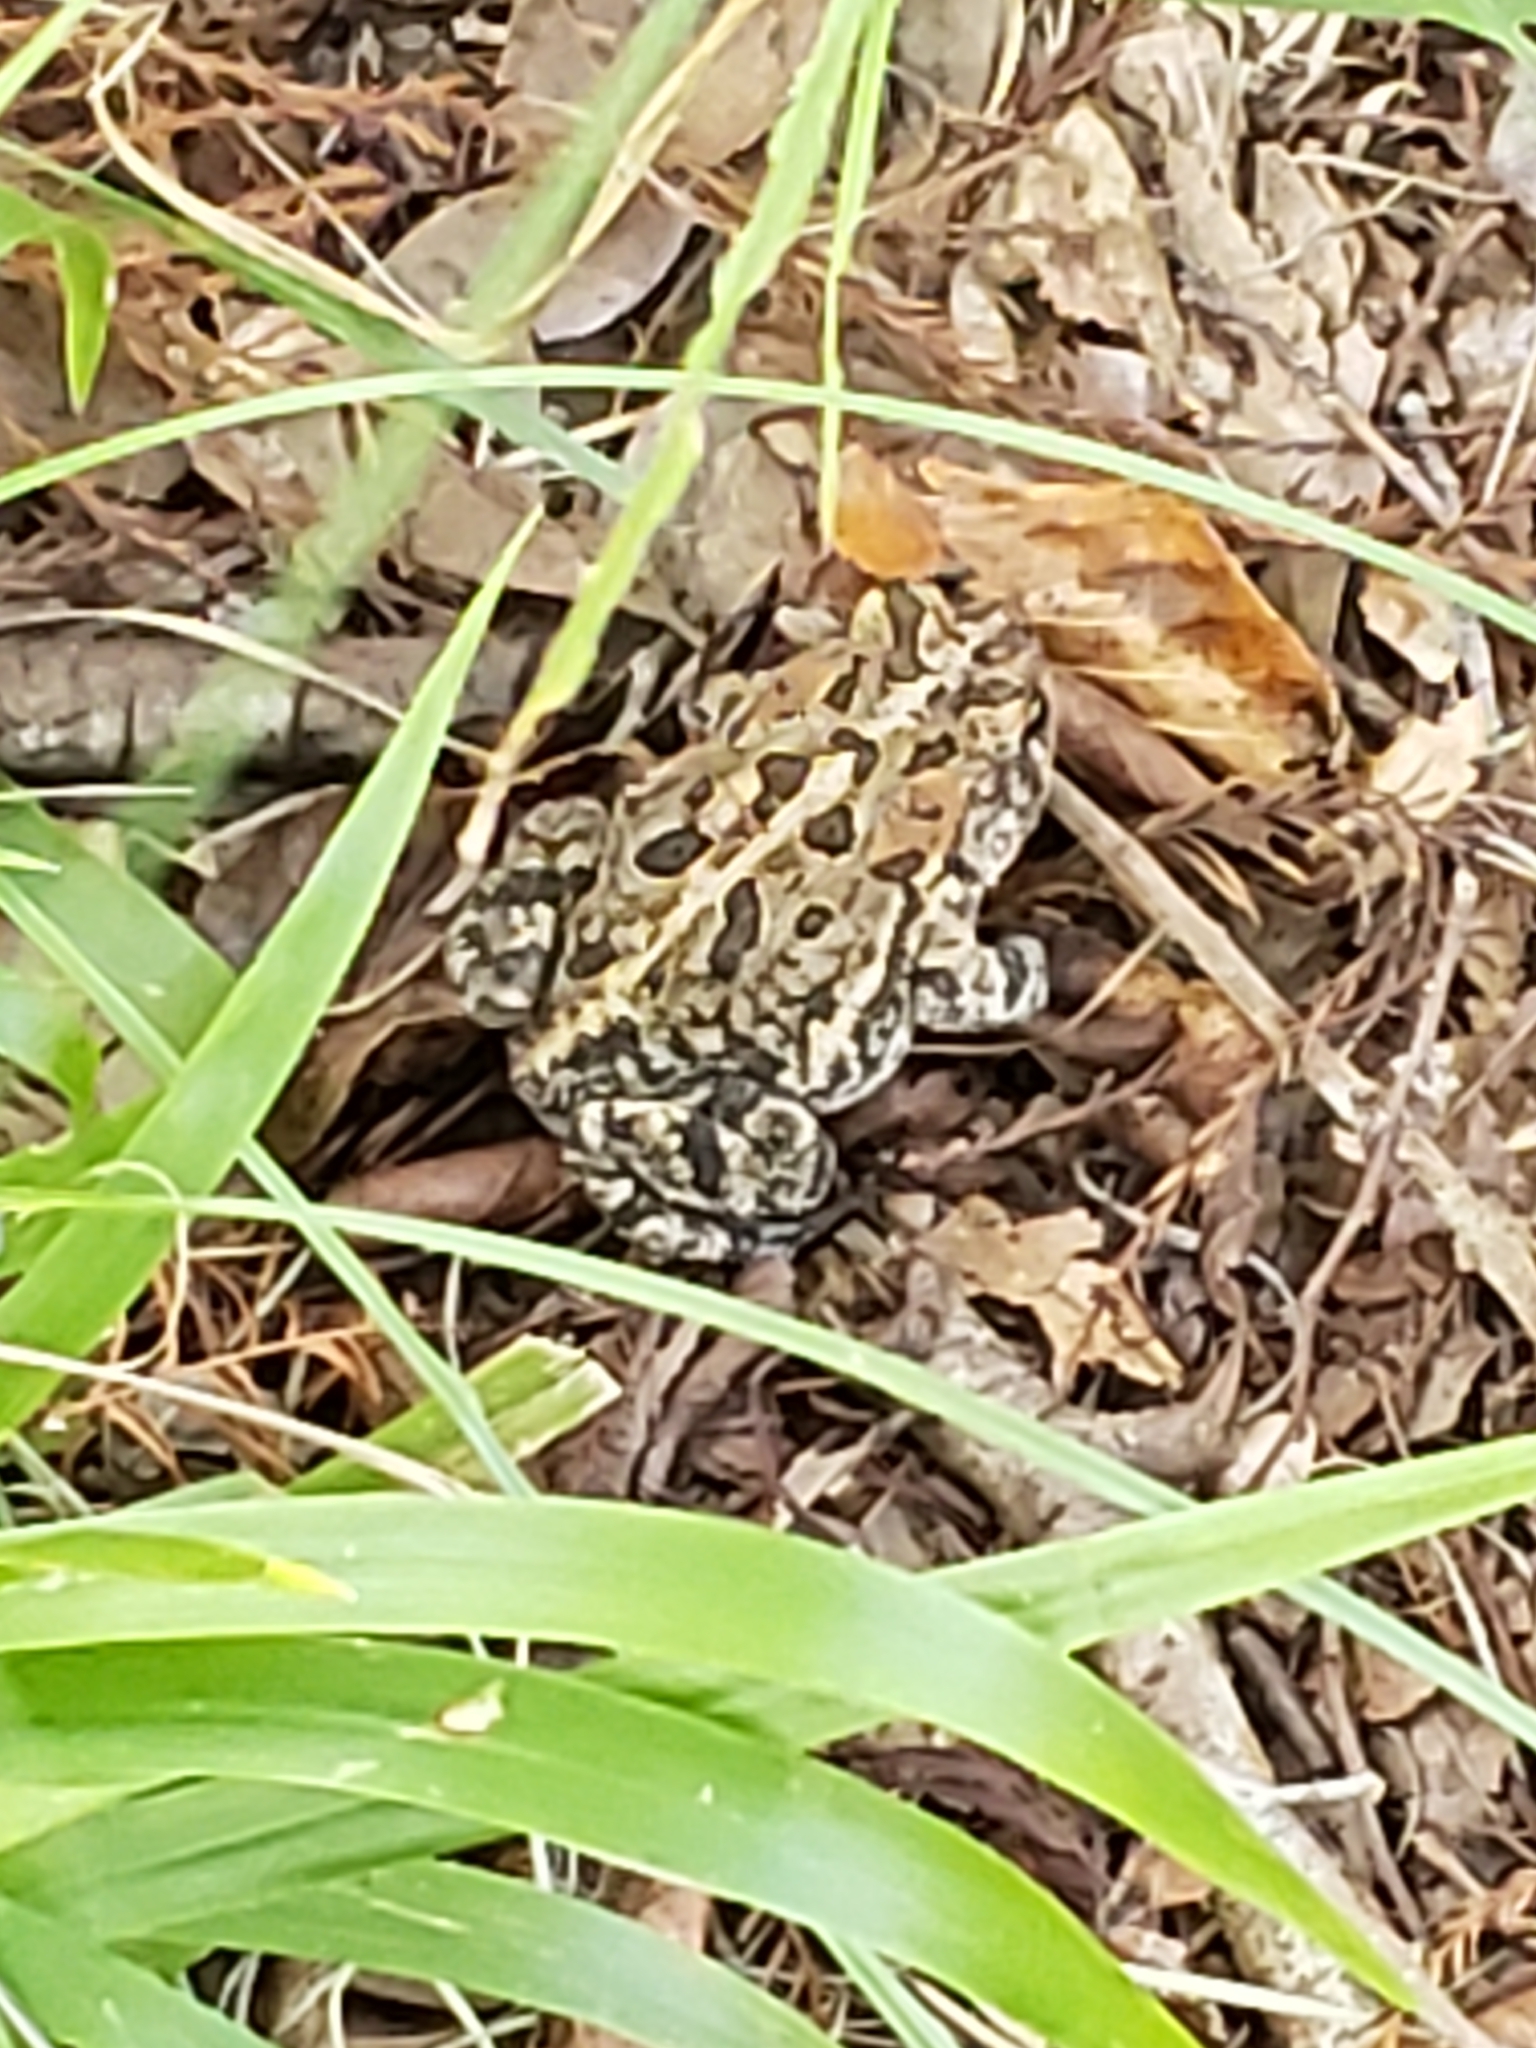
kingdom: Animalia
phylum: Chordata
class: Amphibia
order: Anura
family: Bufonidae
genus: Anaxyrus
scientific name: Anaxyrus terrestris
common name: Southern toad
